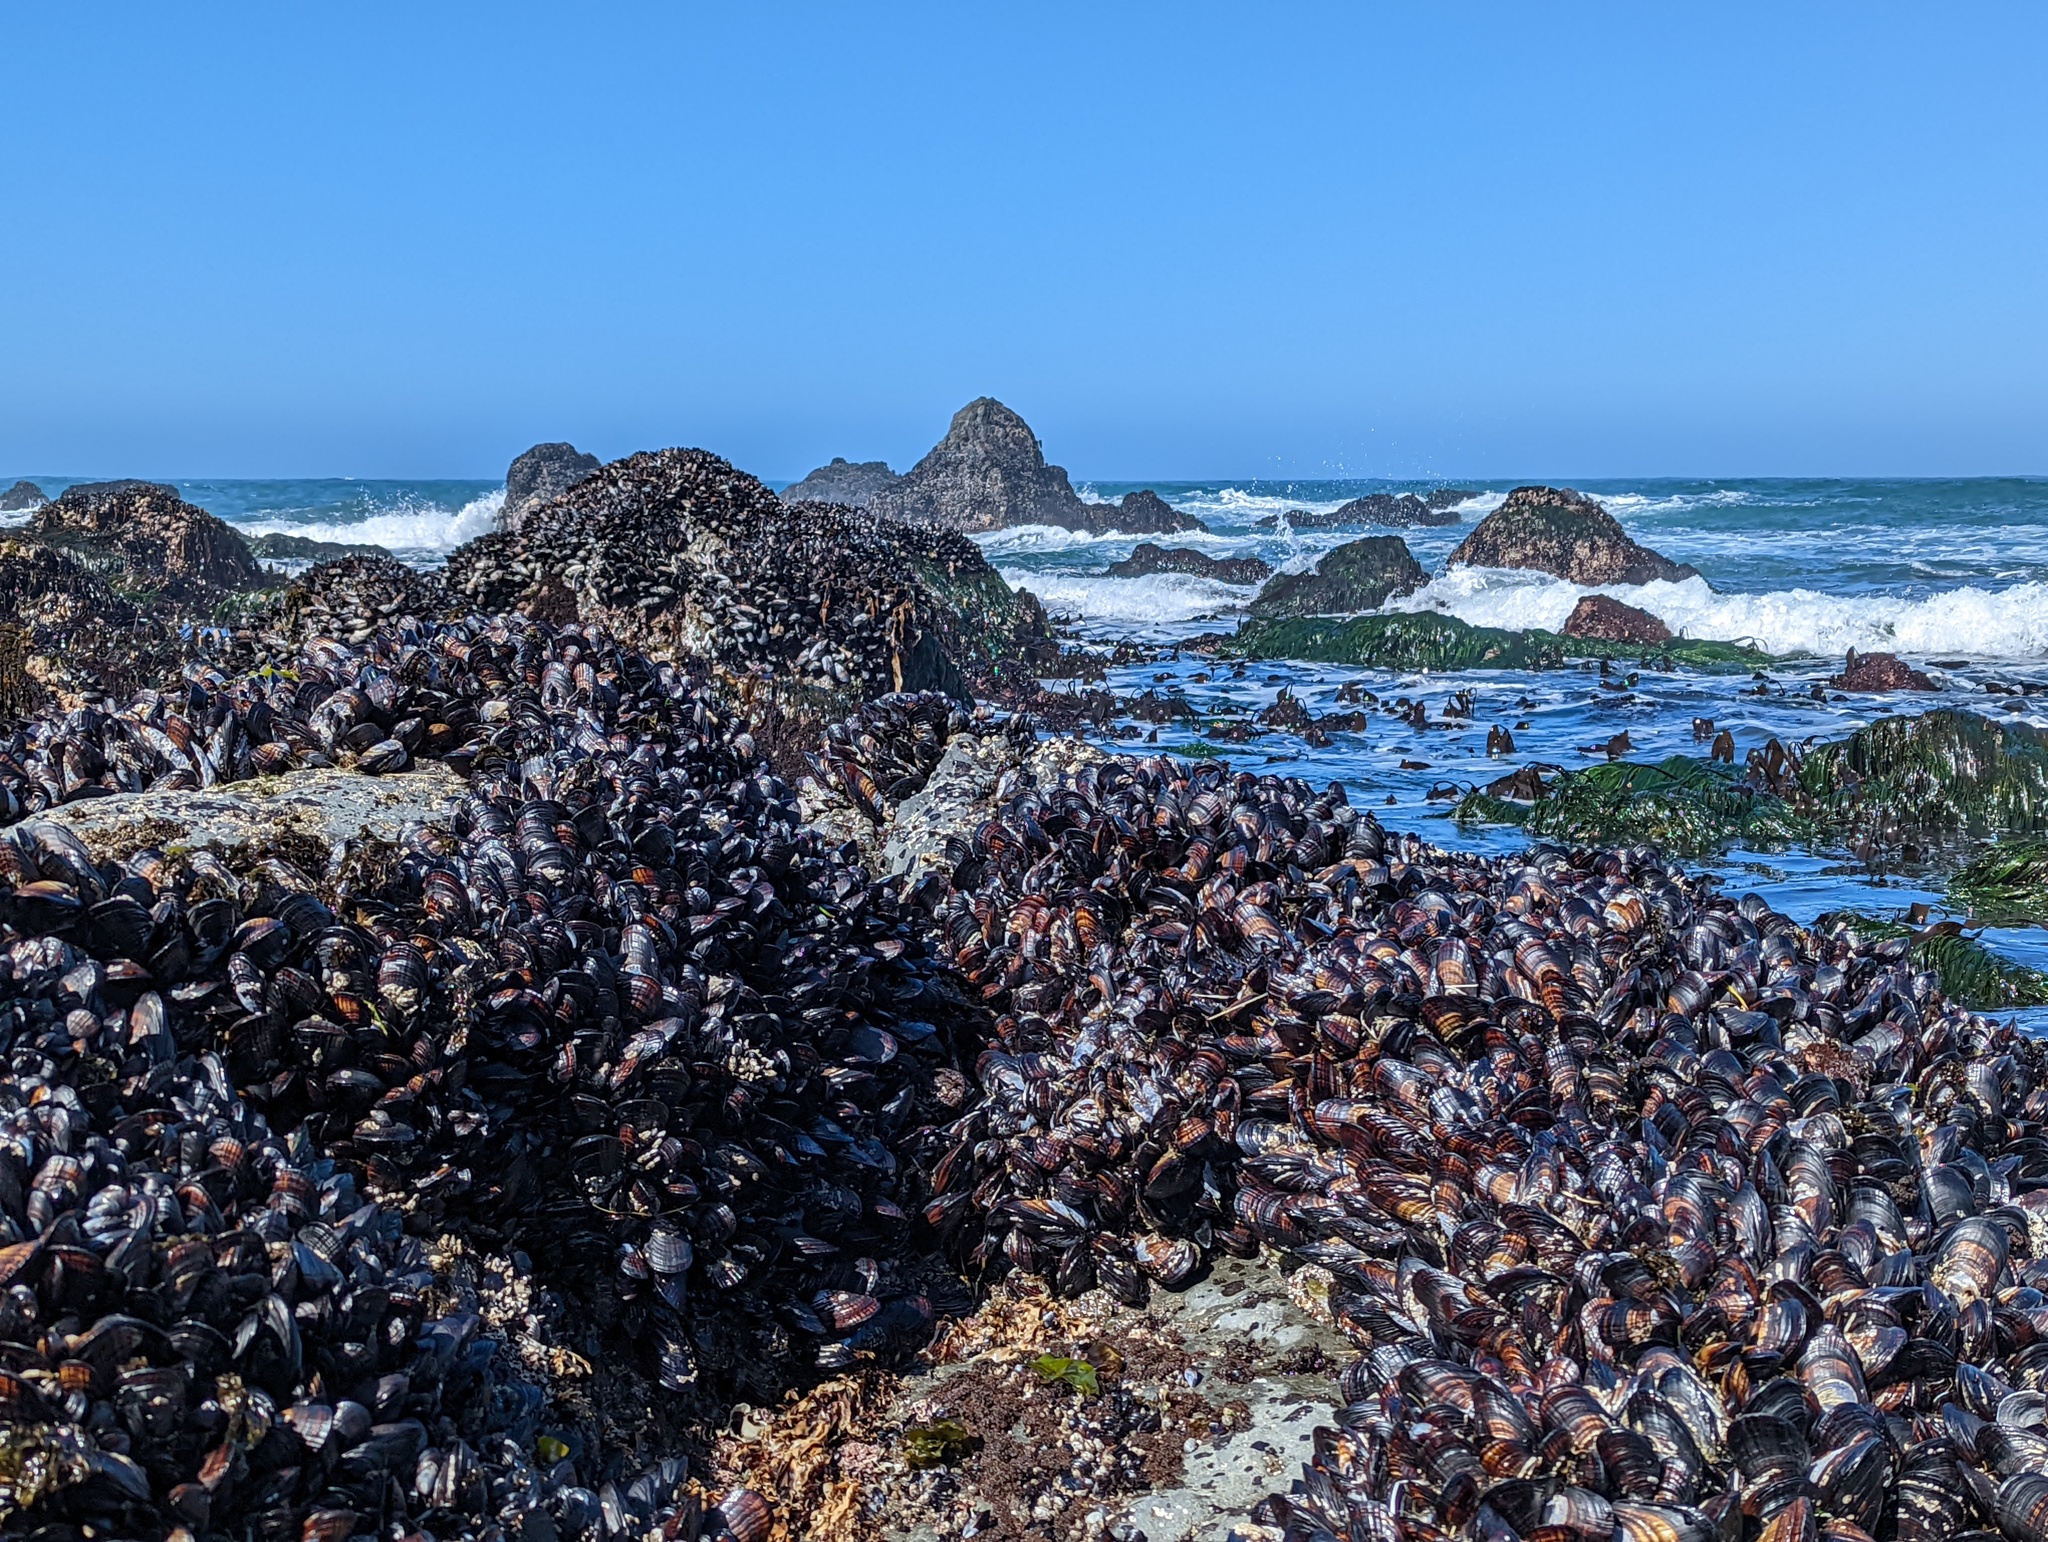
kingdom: Animalia
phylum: Mollusca
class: Bivalvia
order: Mytilida
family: Mytilidae
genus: Mytilus
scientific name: Mytilus californianus
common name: California mussel
